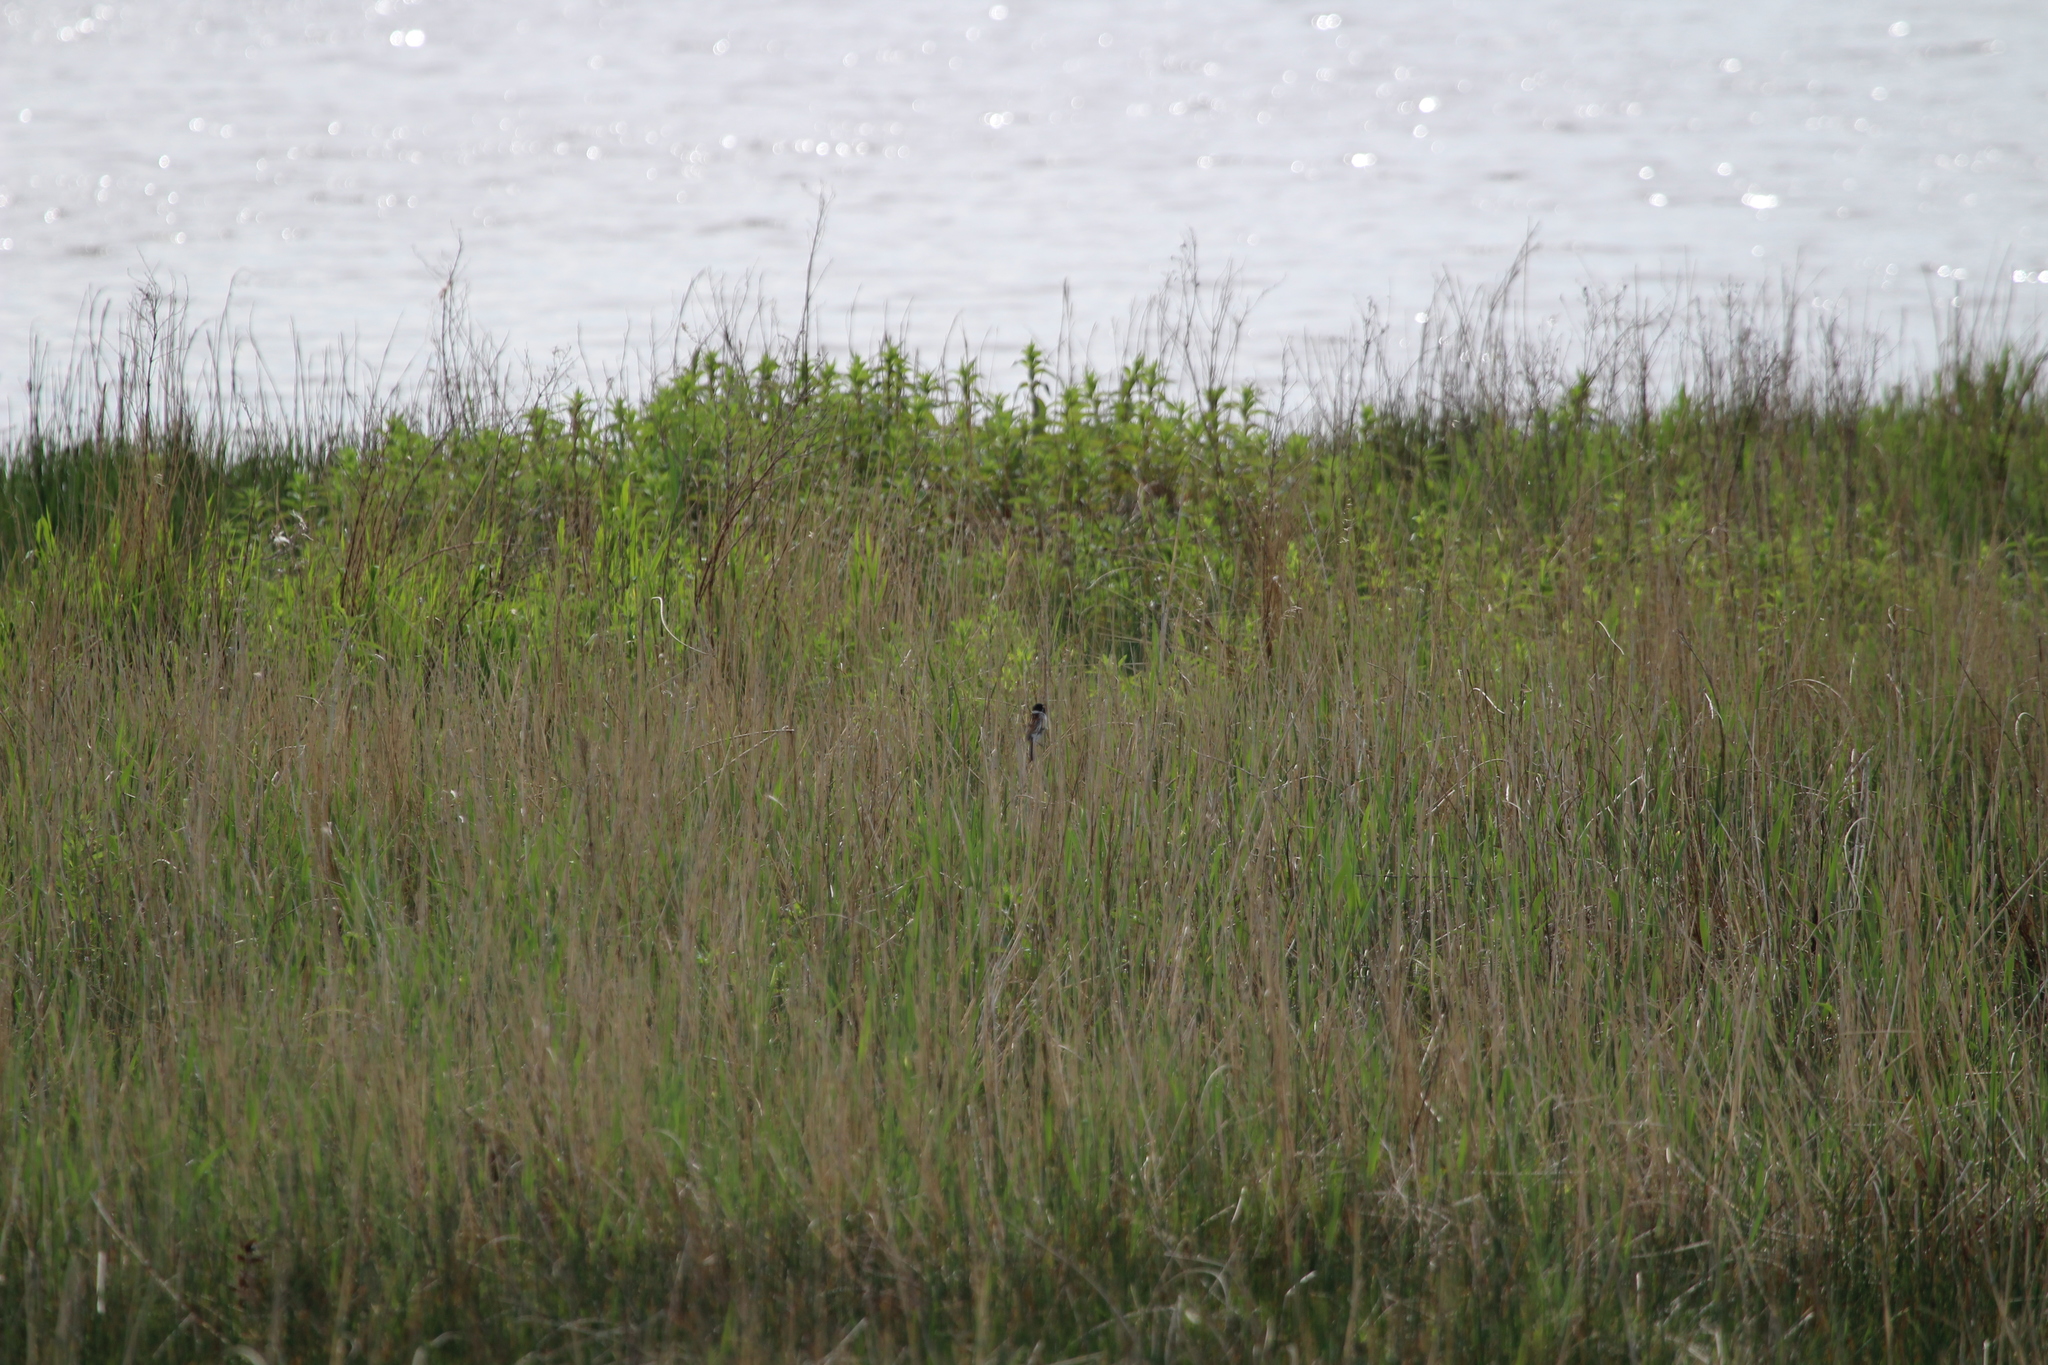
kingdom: Animalia
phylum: Chordata
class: Aves
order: Passeriformes
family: Emberizidae
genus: Emberiza
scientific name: Emberiza schoeniclus
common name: Reed bunting
